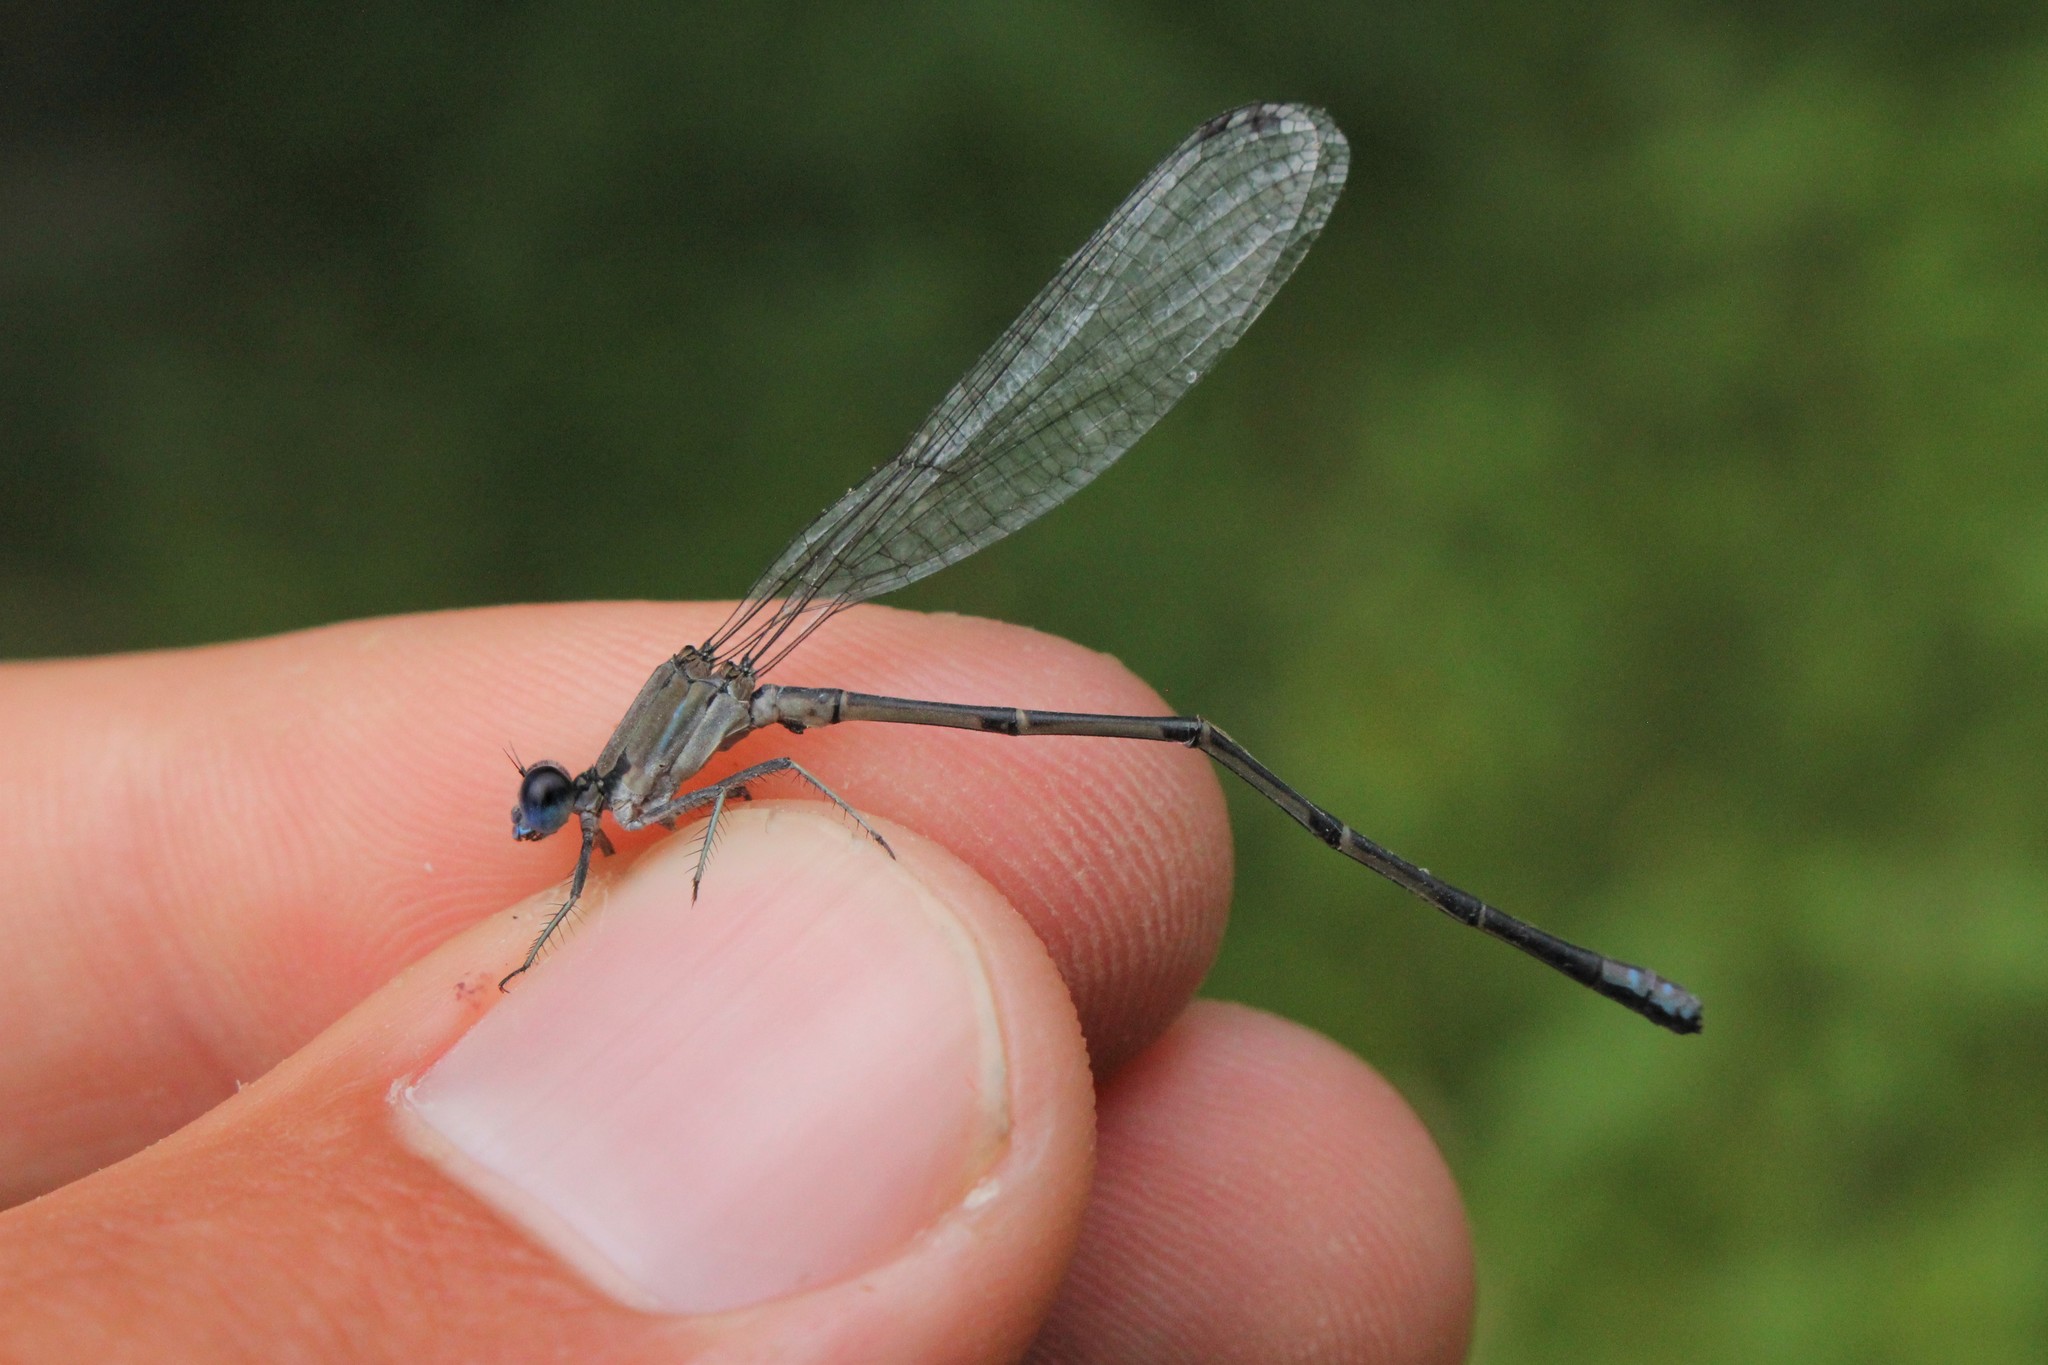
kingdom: Animalia
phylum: Arthropoda
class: Insecta
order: Odonata
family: Coenagrionidae
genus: Argia
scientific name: Argia apicalis
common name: Blue-fronted dancer
